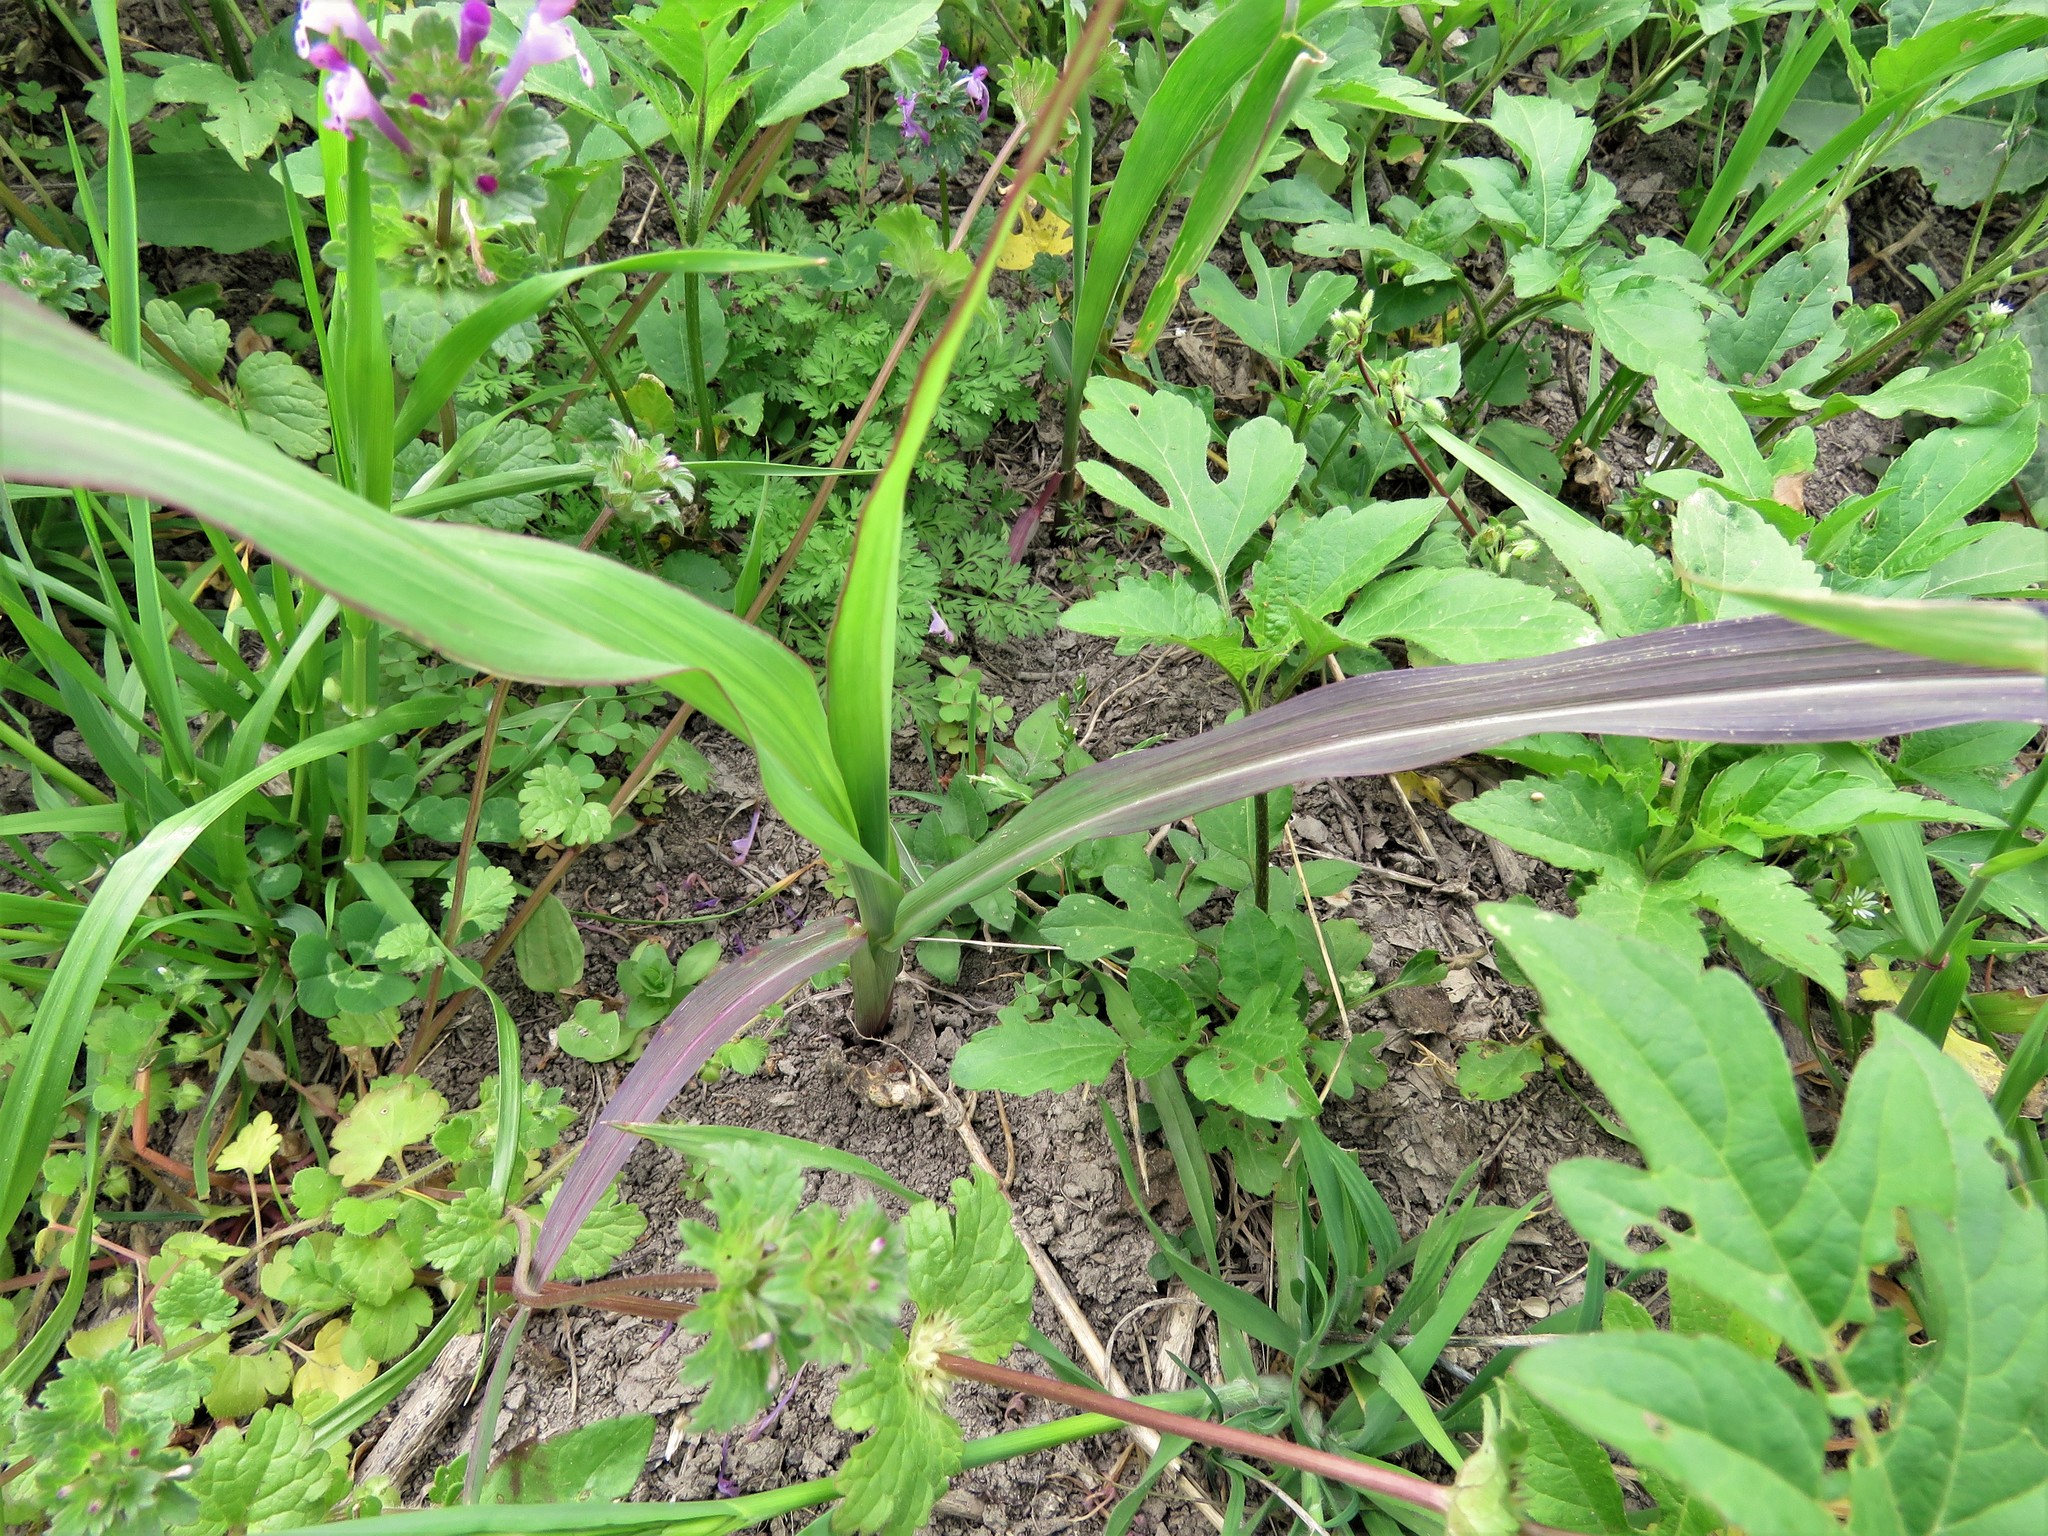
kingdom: Plantae
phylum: Tracheophyta
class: Liliopsida
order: Poales
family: Poaceae
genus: Sorghum
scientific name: Sorghum halepense
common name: Johnson-grass
